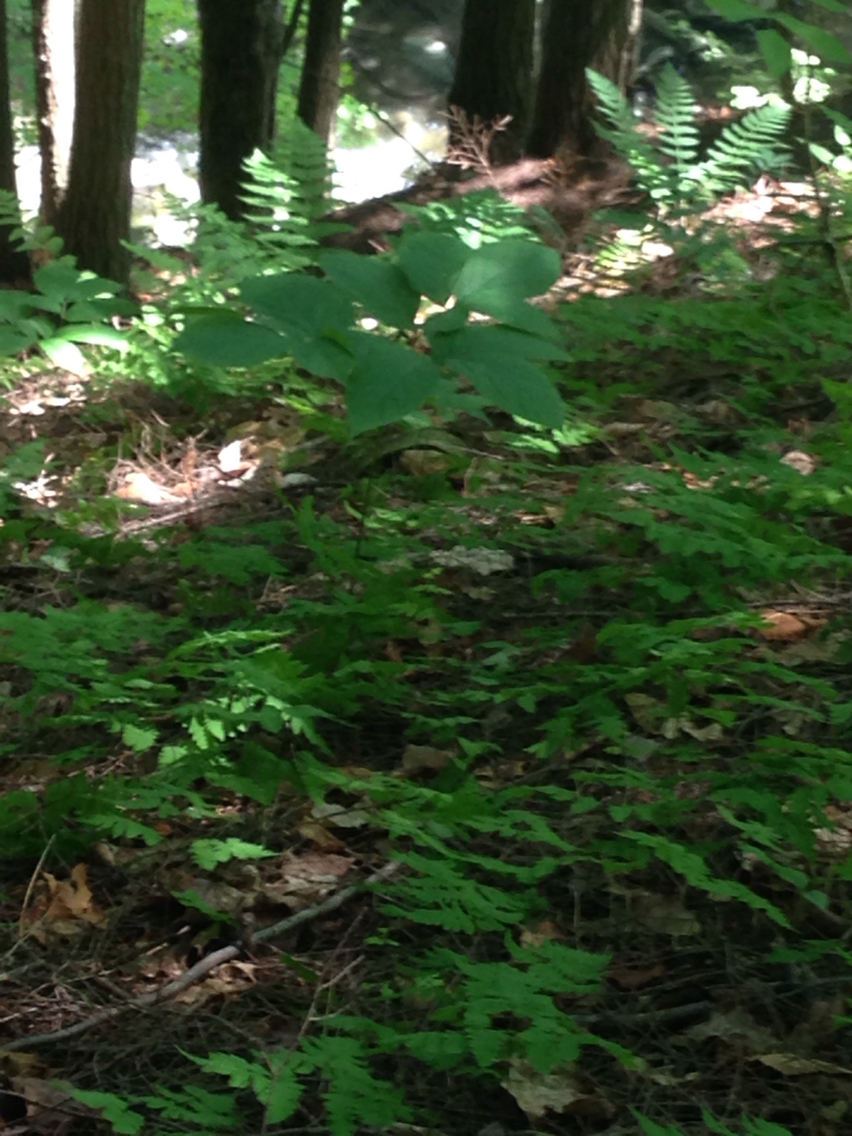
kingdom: Plantae
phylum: Tracheophyta
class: Magnoliopsida
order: Apiales
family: Araliaceae
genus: Aralia
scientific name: Aralia nudicaulis
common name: Wild sarsaparilla
